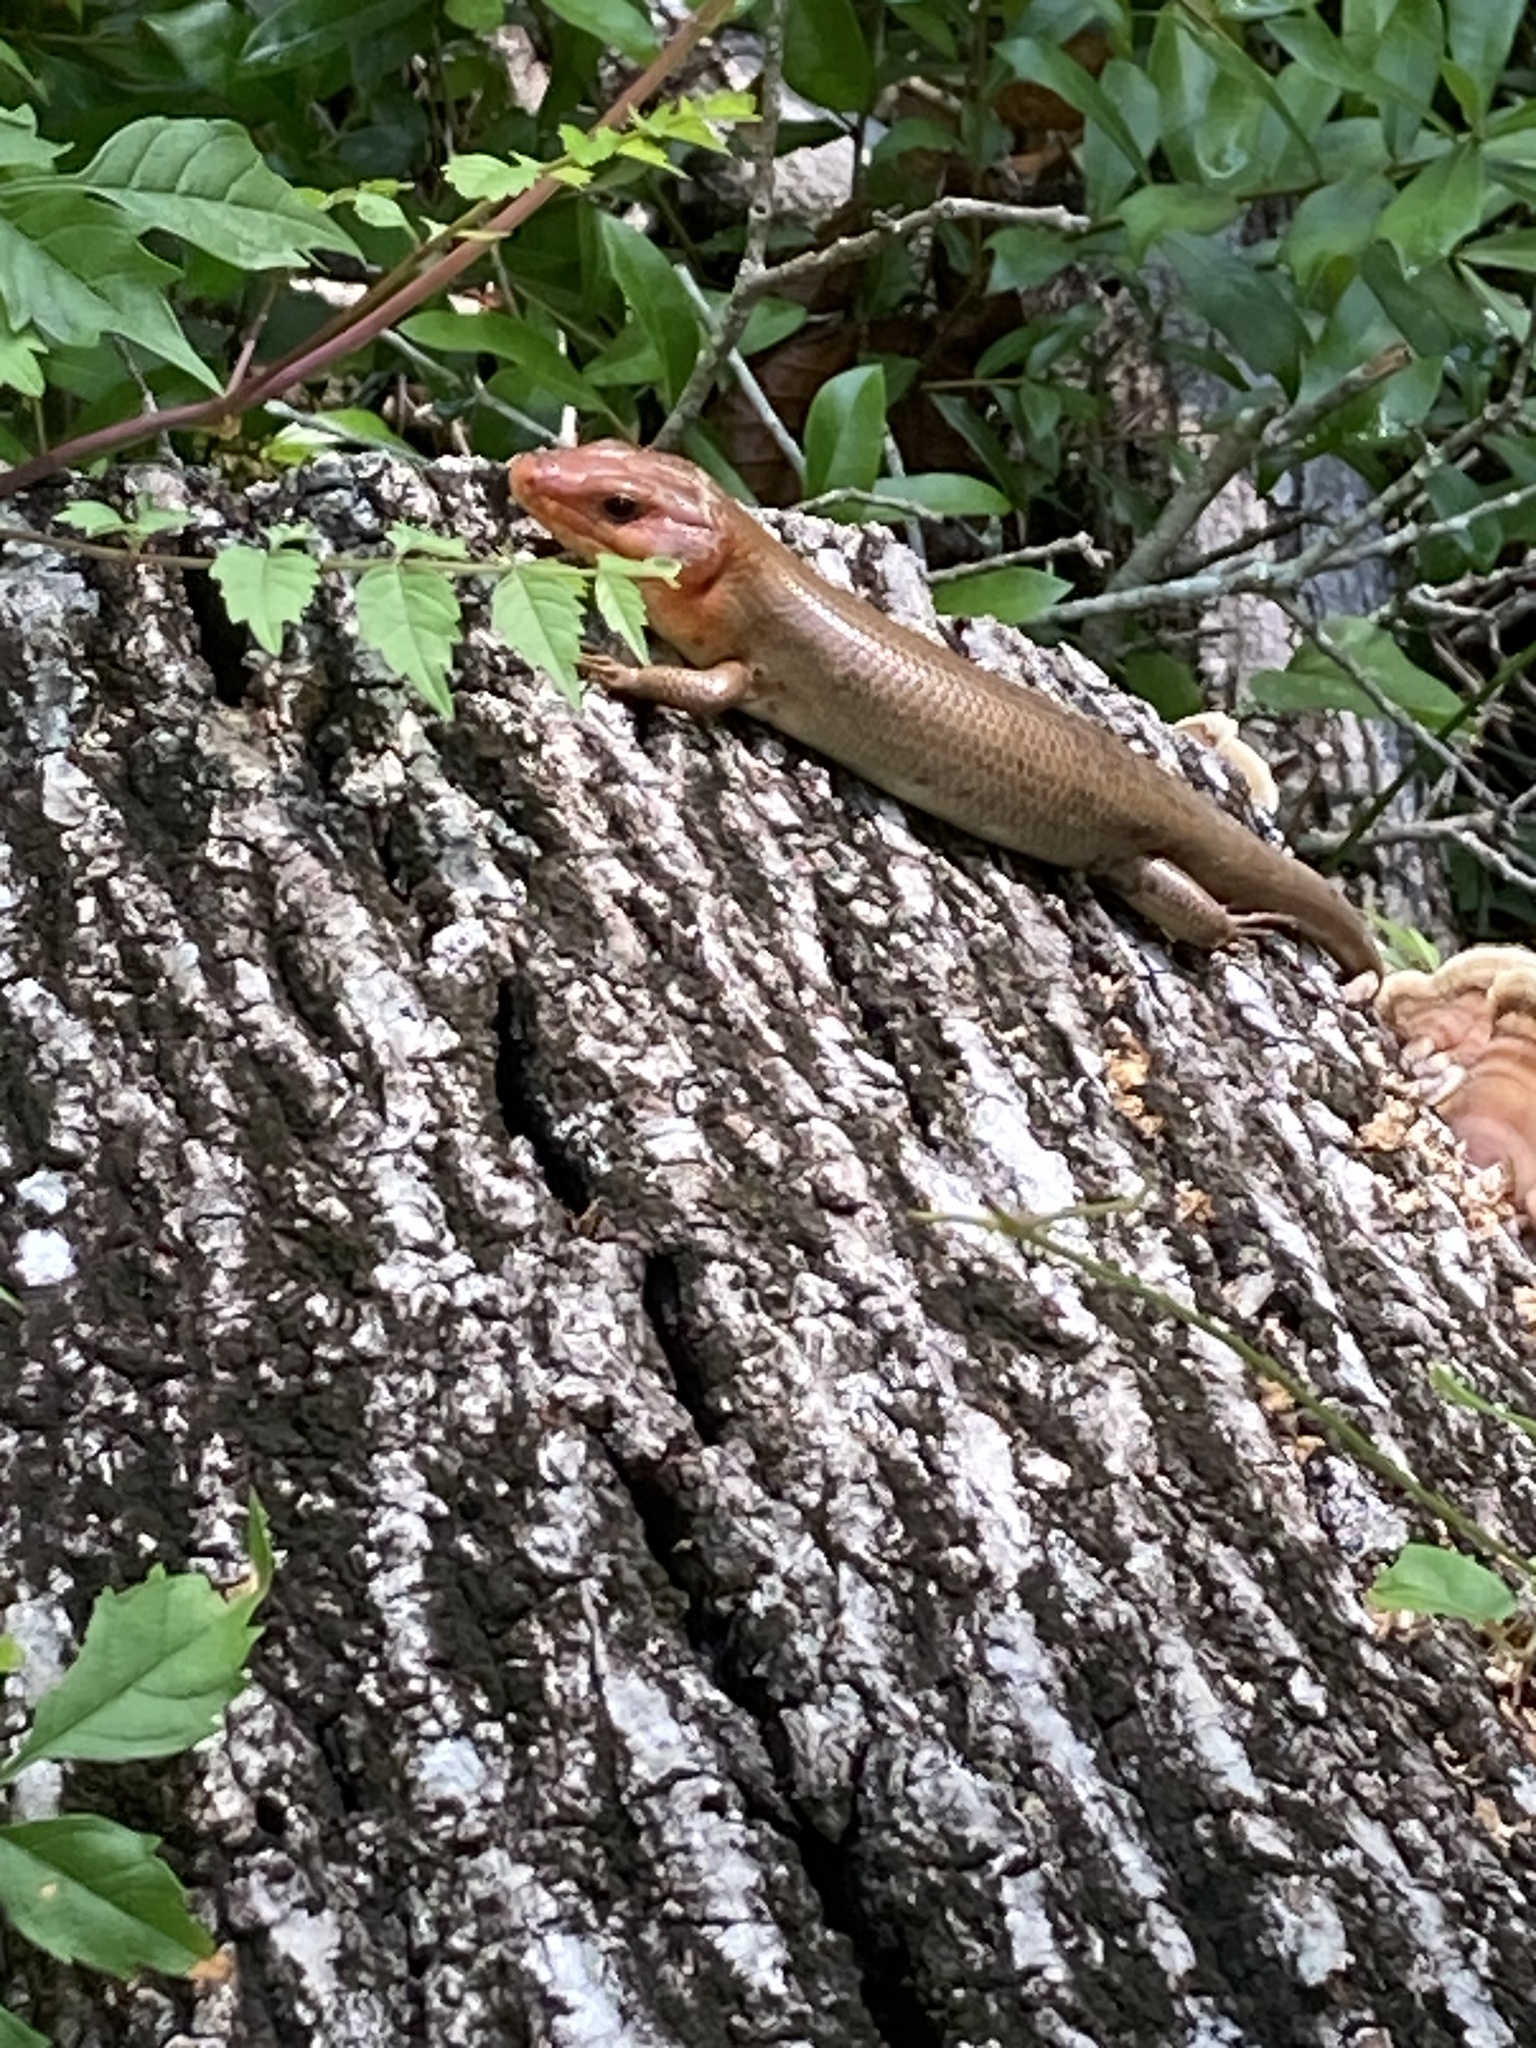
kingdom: Animalia
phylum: Chordata
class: Squamata
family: Scincidae
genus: Plestiodon
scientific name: Plestiodon laticeps
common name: Broadhead skink
